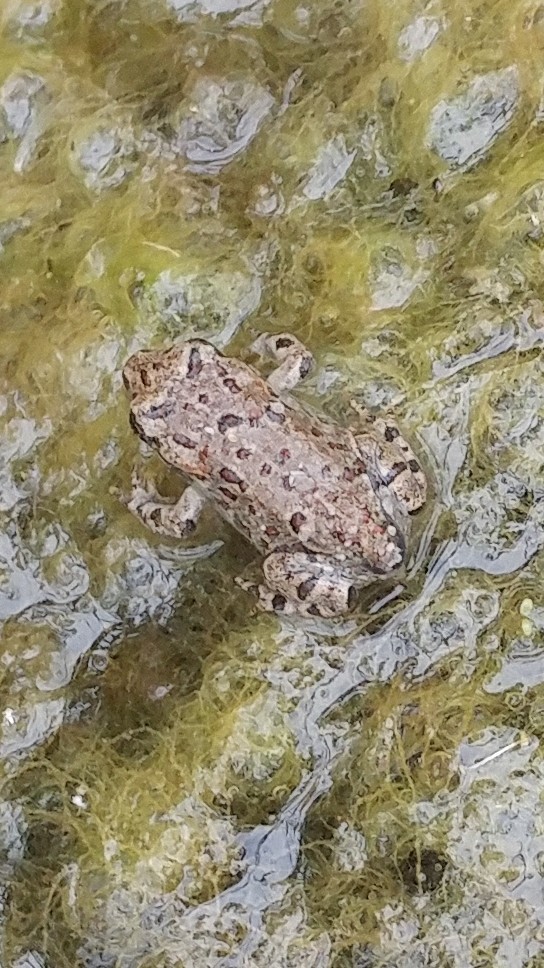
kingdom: Animalia
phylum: Chordata
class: Amphibia
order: Anura
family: Bufonidae
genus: Anaxyrus
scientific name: Anaxyrus boreas
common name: Western toad
